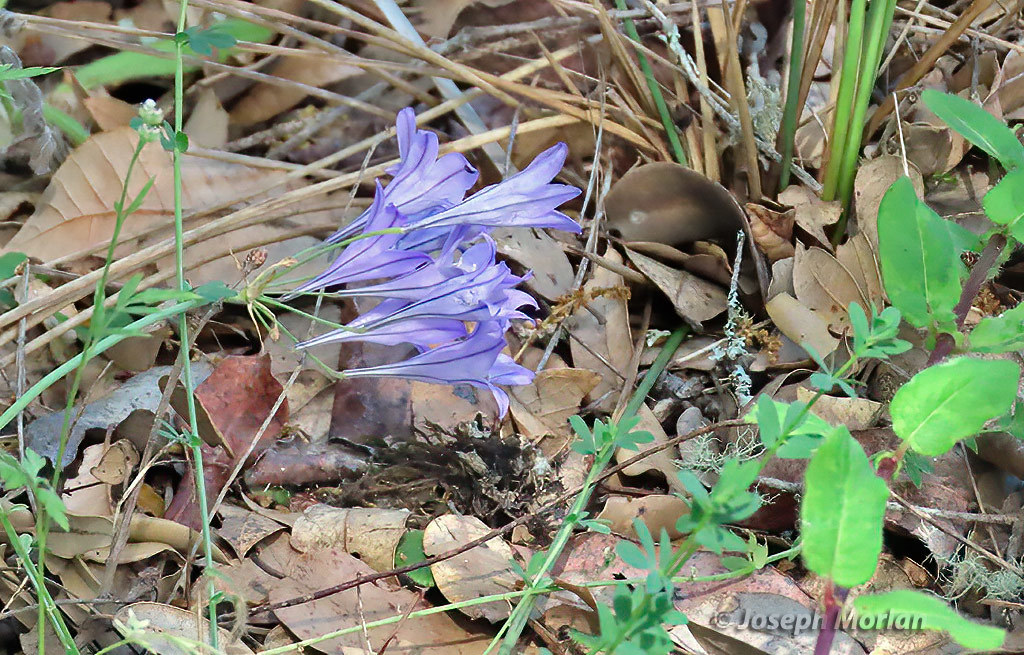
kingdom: Plantae
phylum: Tracheophyta
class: Liliopsida
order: Asparagales
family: Asparagaceae
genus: Triteleia
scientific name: Triteleia laxa
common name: Triplet-lily
